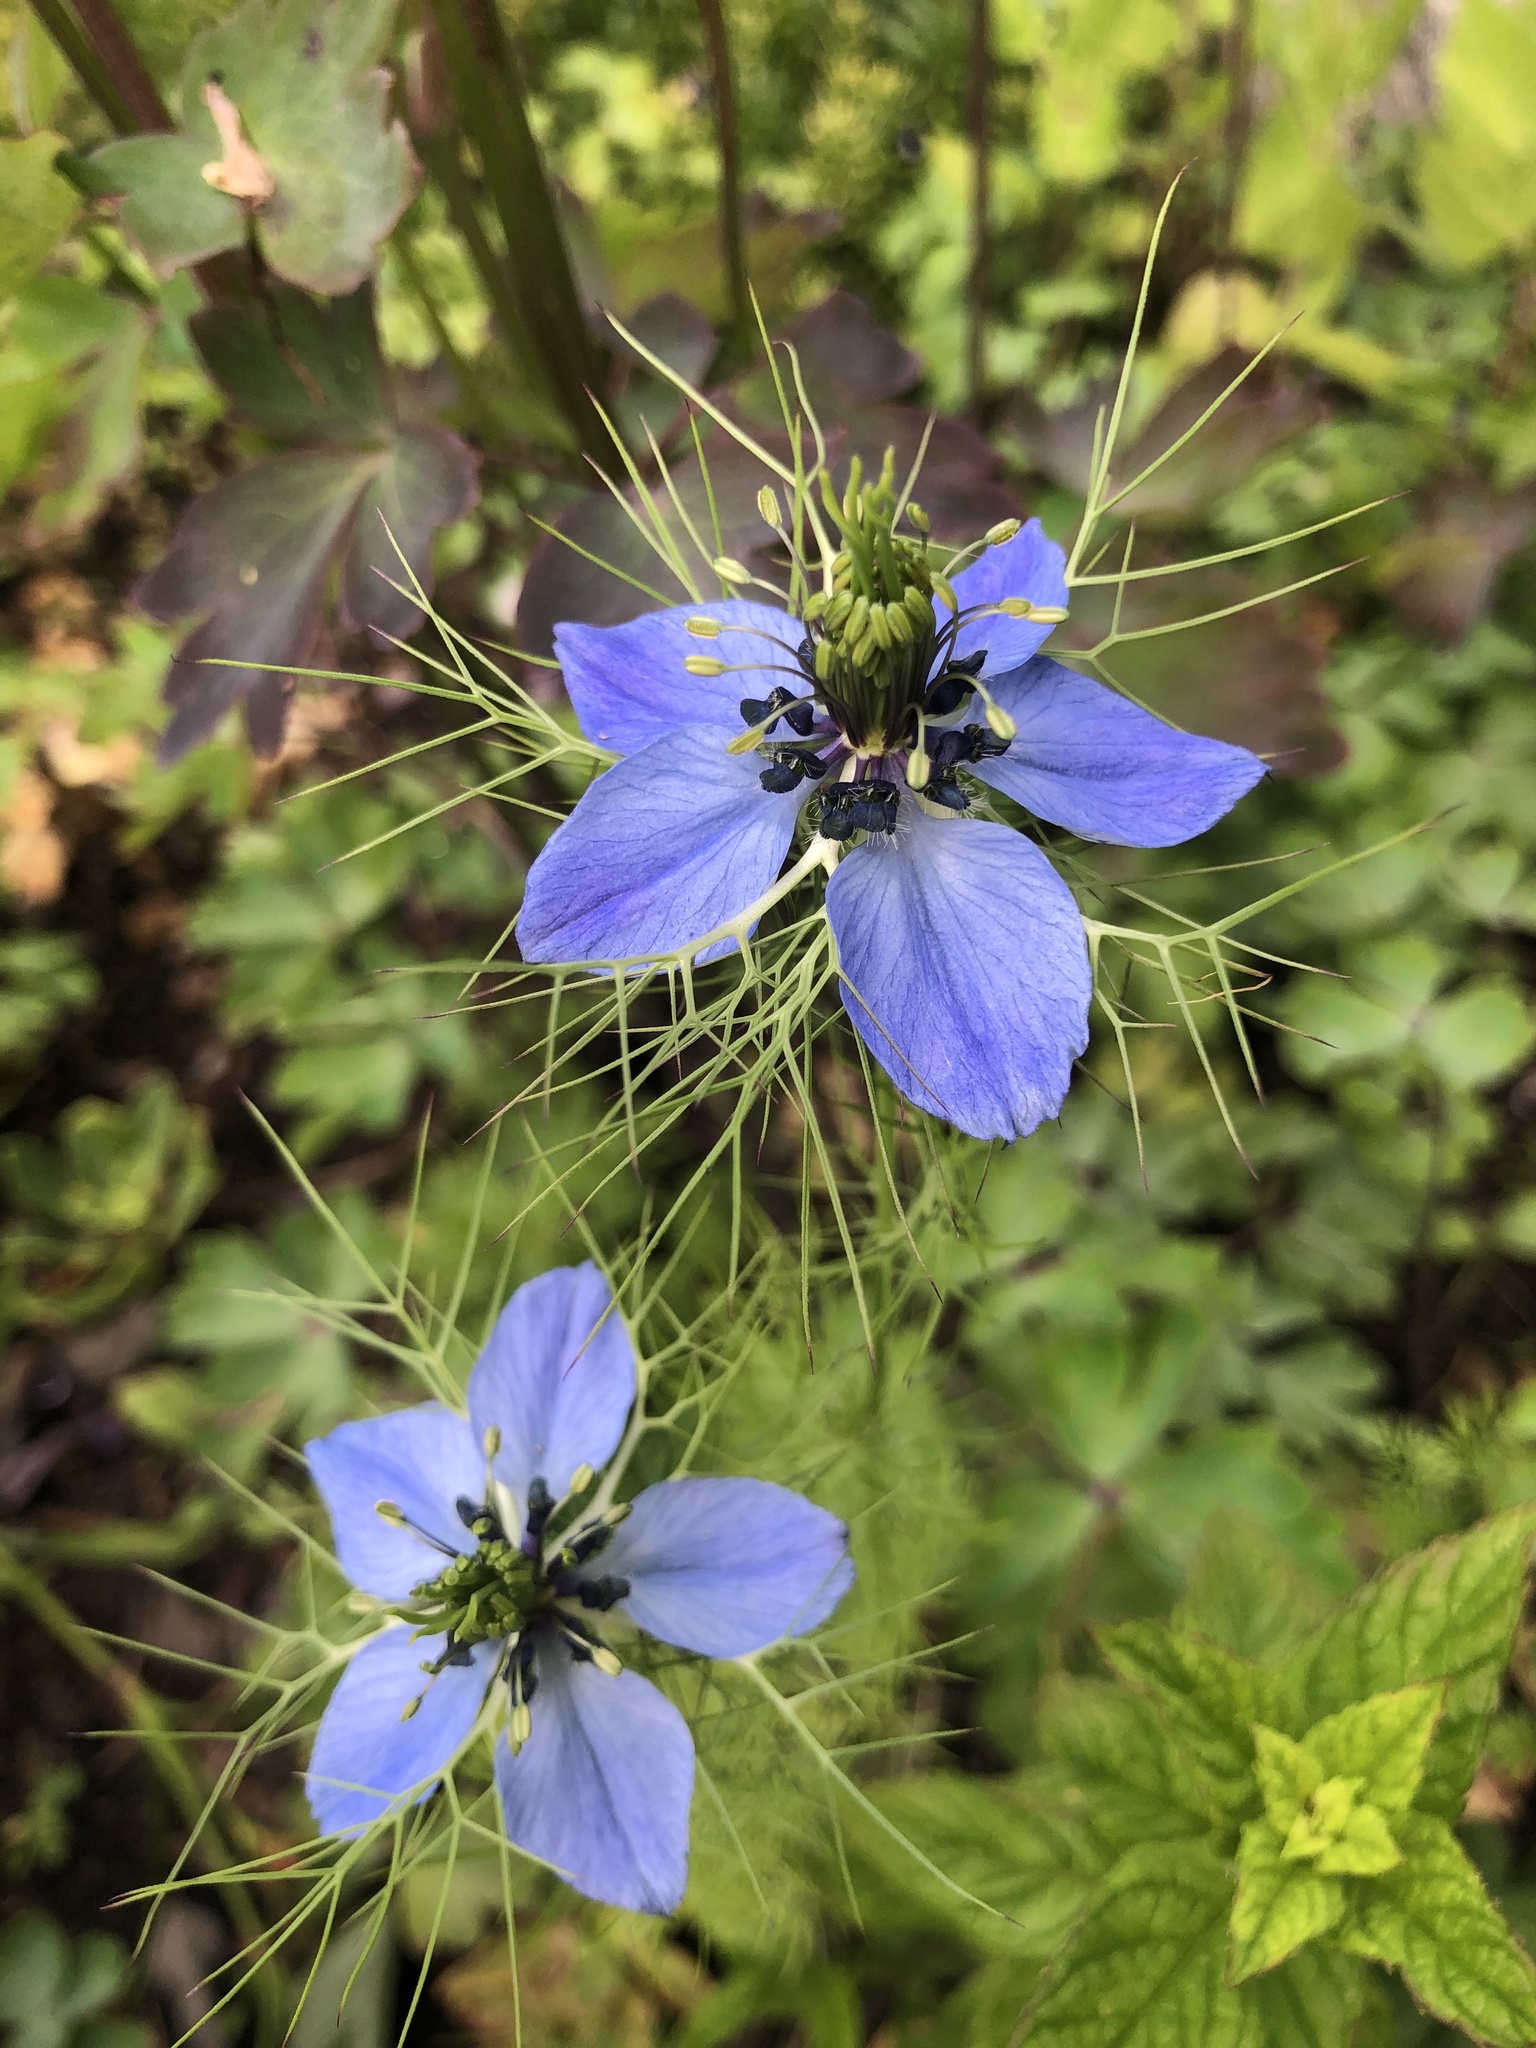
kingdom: Plantae
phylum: Tracheophyta
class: Magnoliopsida
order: Ranunculales
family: Ranunculaceae
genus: Nigella
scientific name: Nigella damascena
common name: Love-in-a-mist
